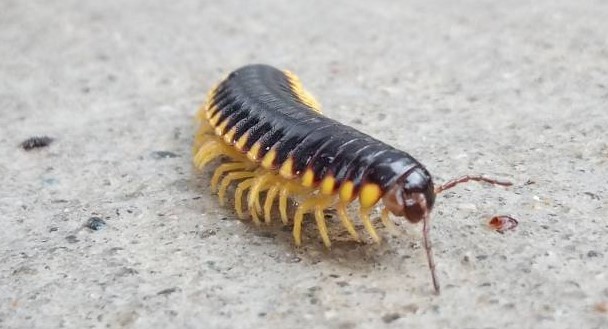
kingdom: Animalia
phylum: Arthropoda
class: Diplopoda
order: Polydesmida
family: Xystodesmidae
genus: Apheloria
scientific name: Apheloria tigana
